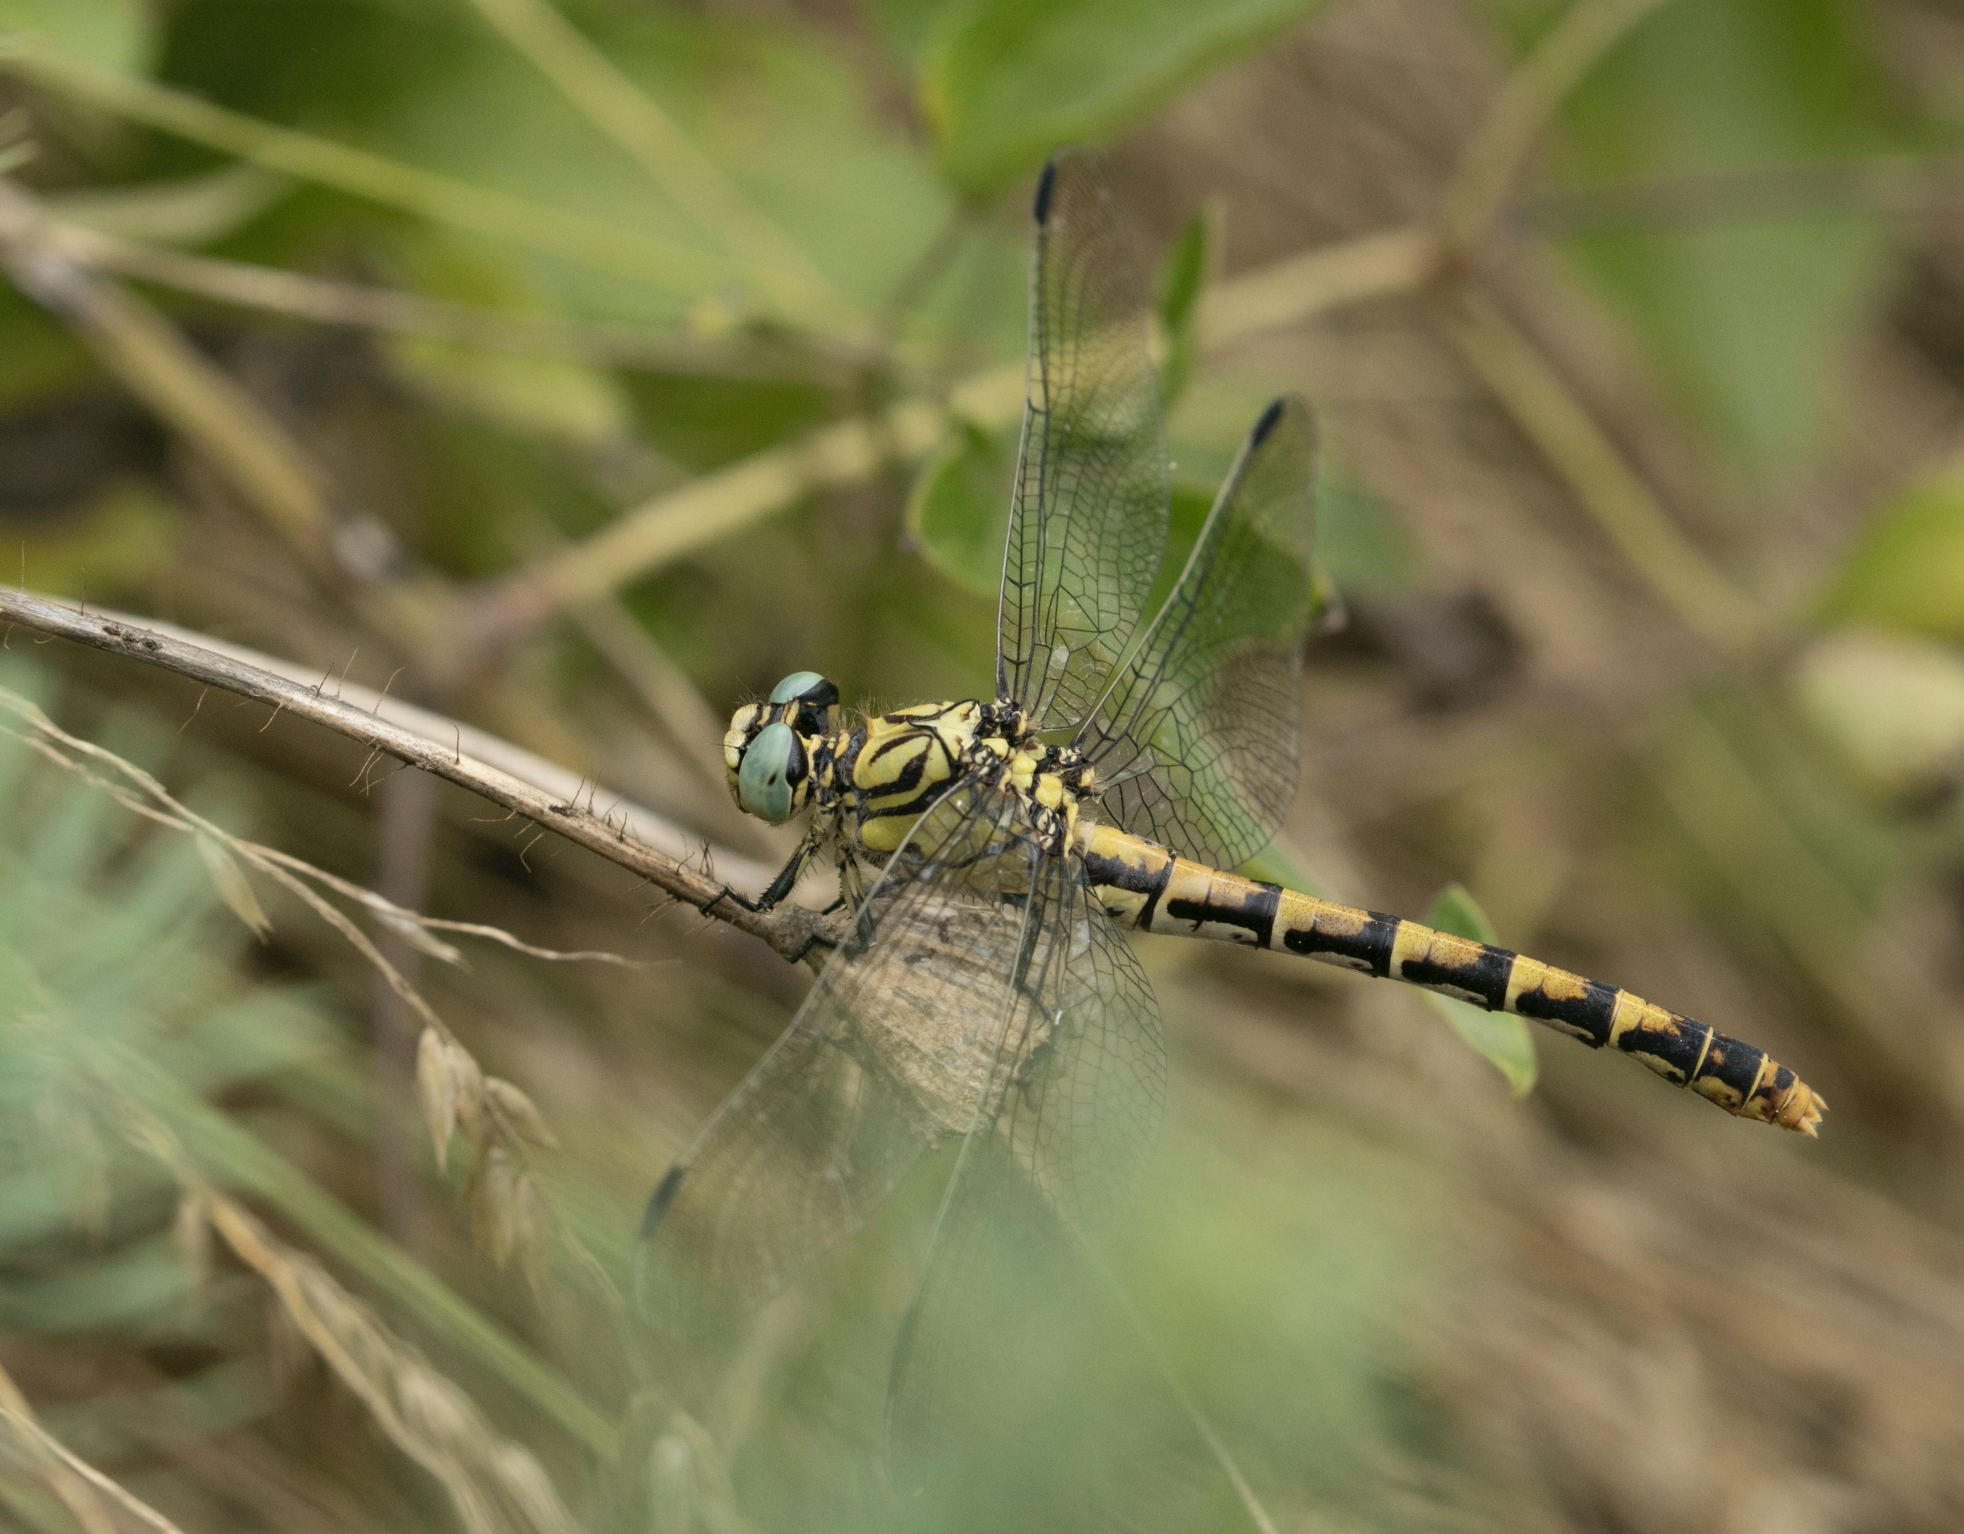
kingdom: Animalia
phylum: Arthropoda
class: Insecta
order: Odonata
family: Gomphidae
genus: Onychogomphus
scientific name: Onychogomphus forcipatus
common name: Small pincertail
